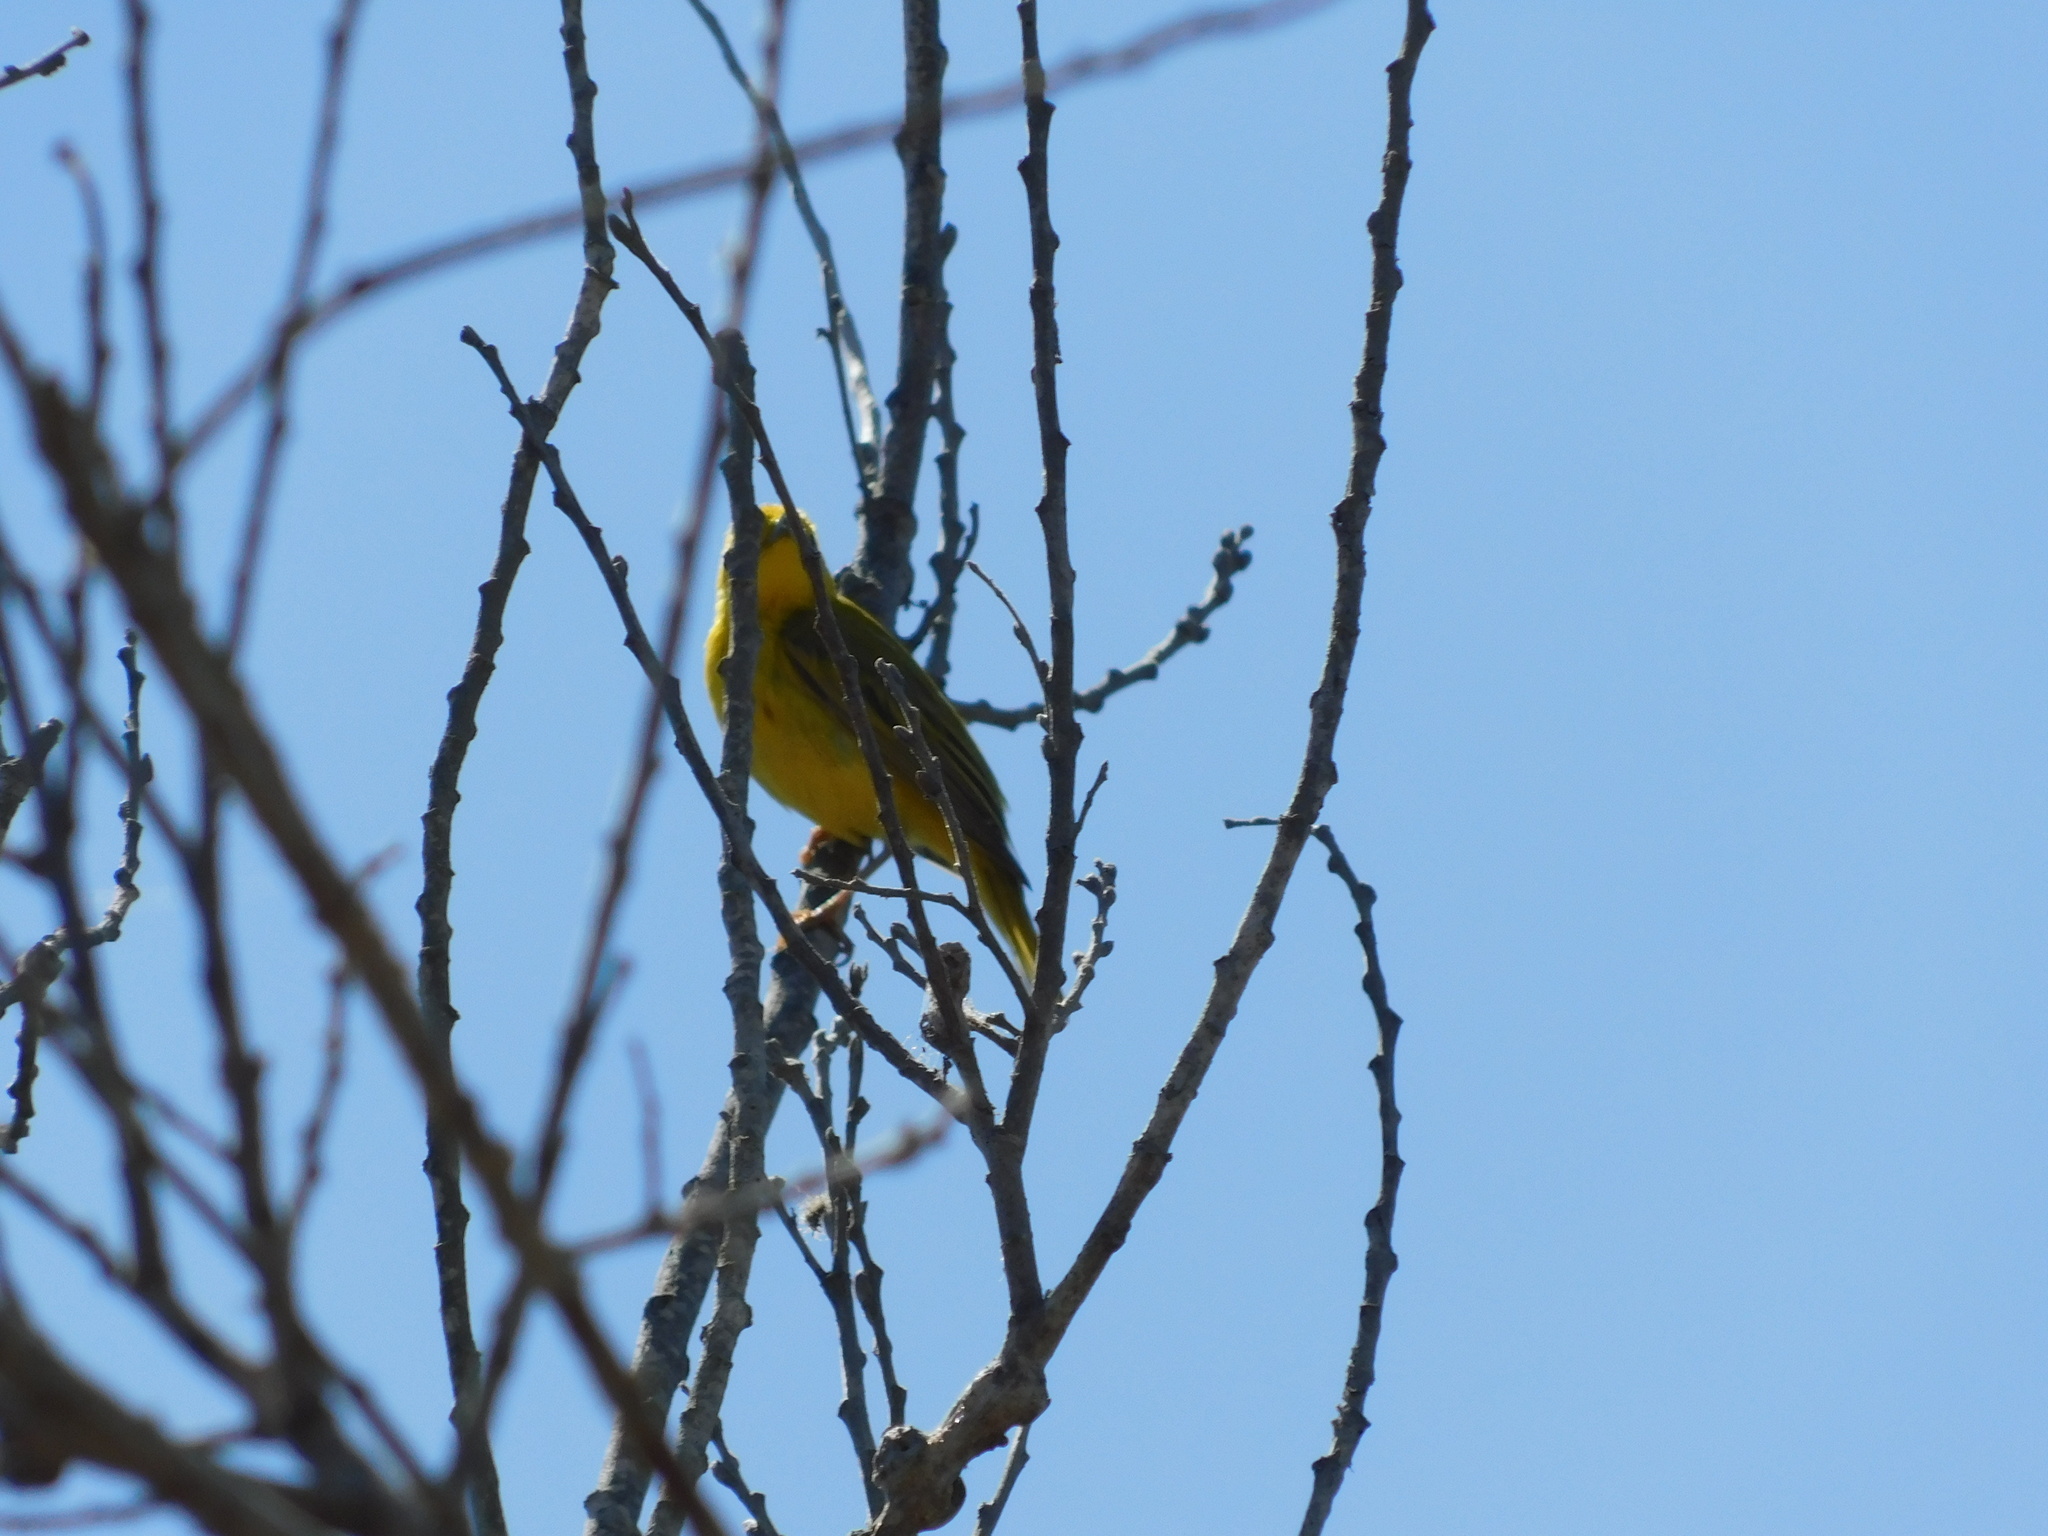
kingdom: Animalia
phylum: Chordata
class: Aves
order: Passeriformes
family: Parulidae
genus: Setophaga
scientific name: Setophaga petechia
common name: Yellow warbler
